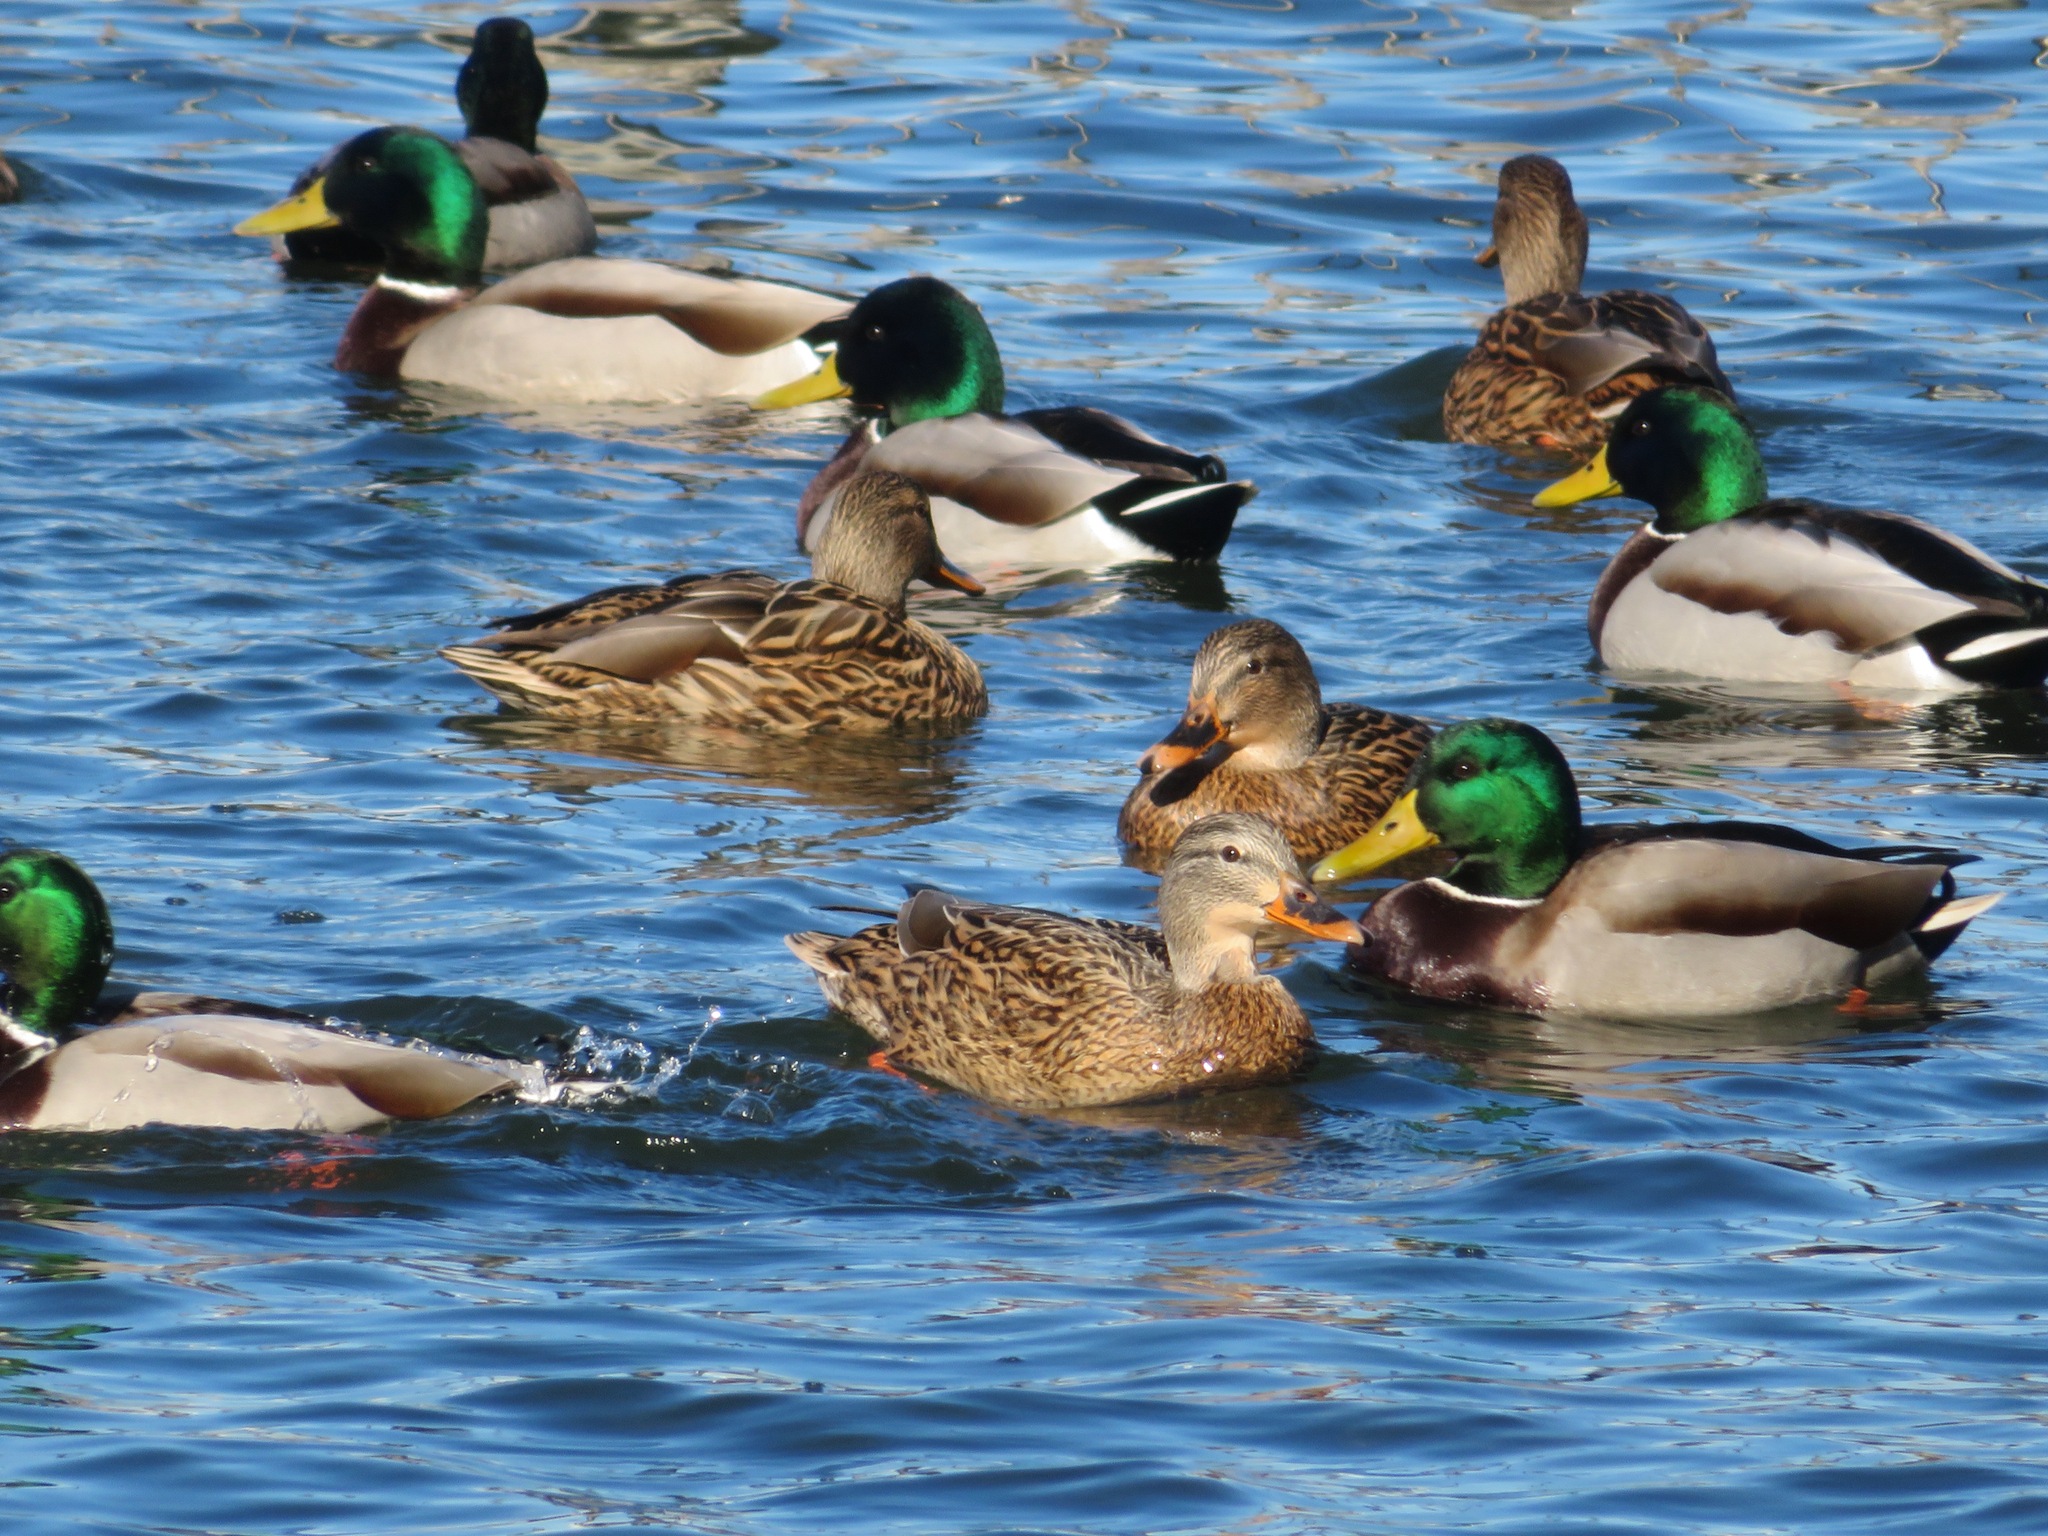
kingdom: Animalia
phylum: Chordata
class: Aves
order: Anseriformes
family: Anatidae
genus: Anas
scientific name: Anas platyrhynchos
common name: Mallard
